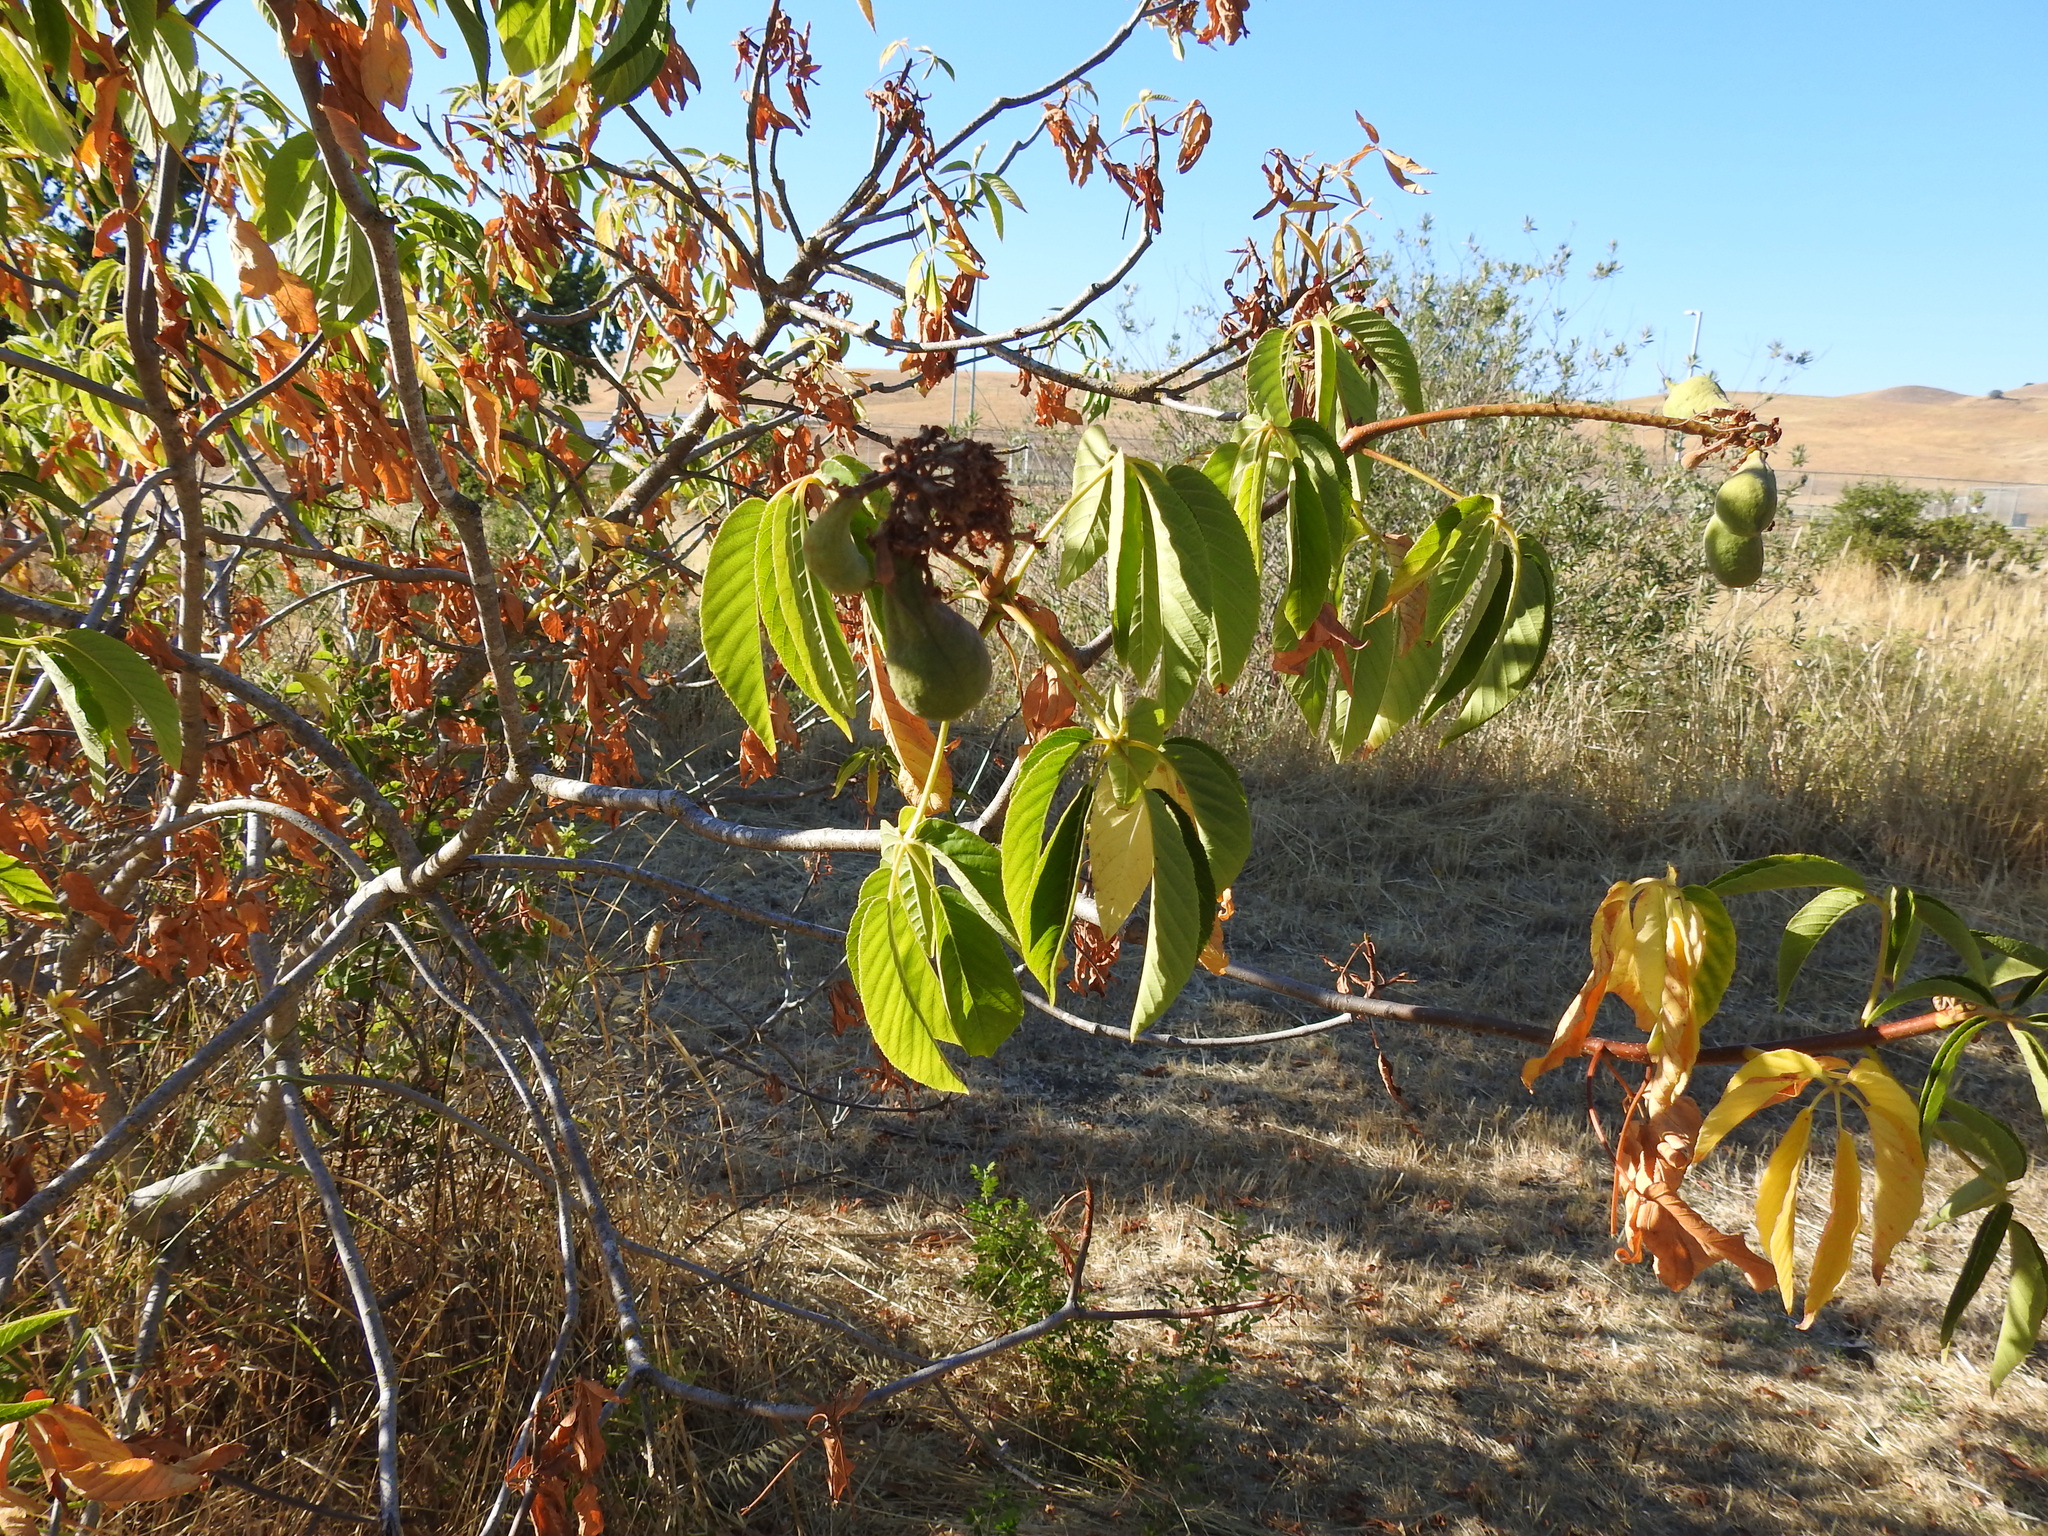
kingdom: Plantae
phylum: Tracheophyta
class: Magnoliopsida
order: Sapindales
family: Sapindaceae
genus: Aesculus
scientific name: Aesculus californica
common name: California buckeye
